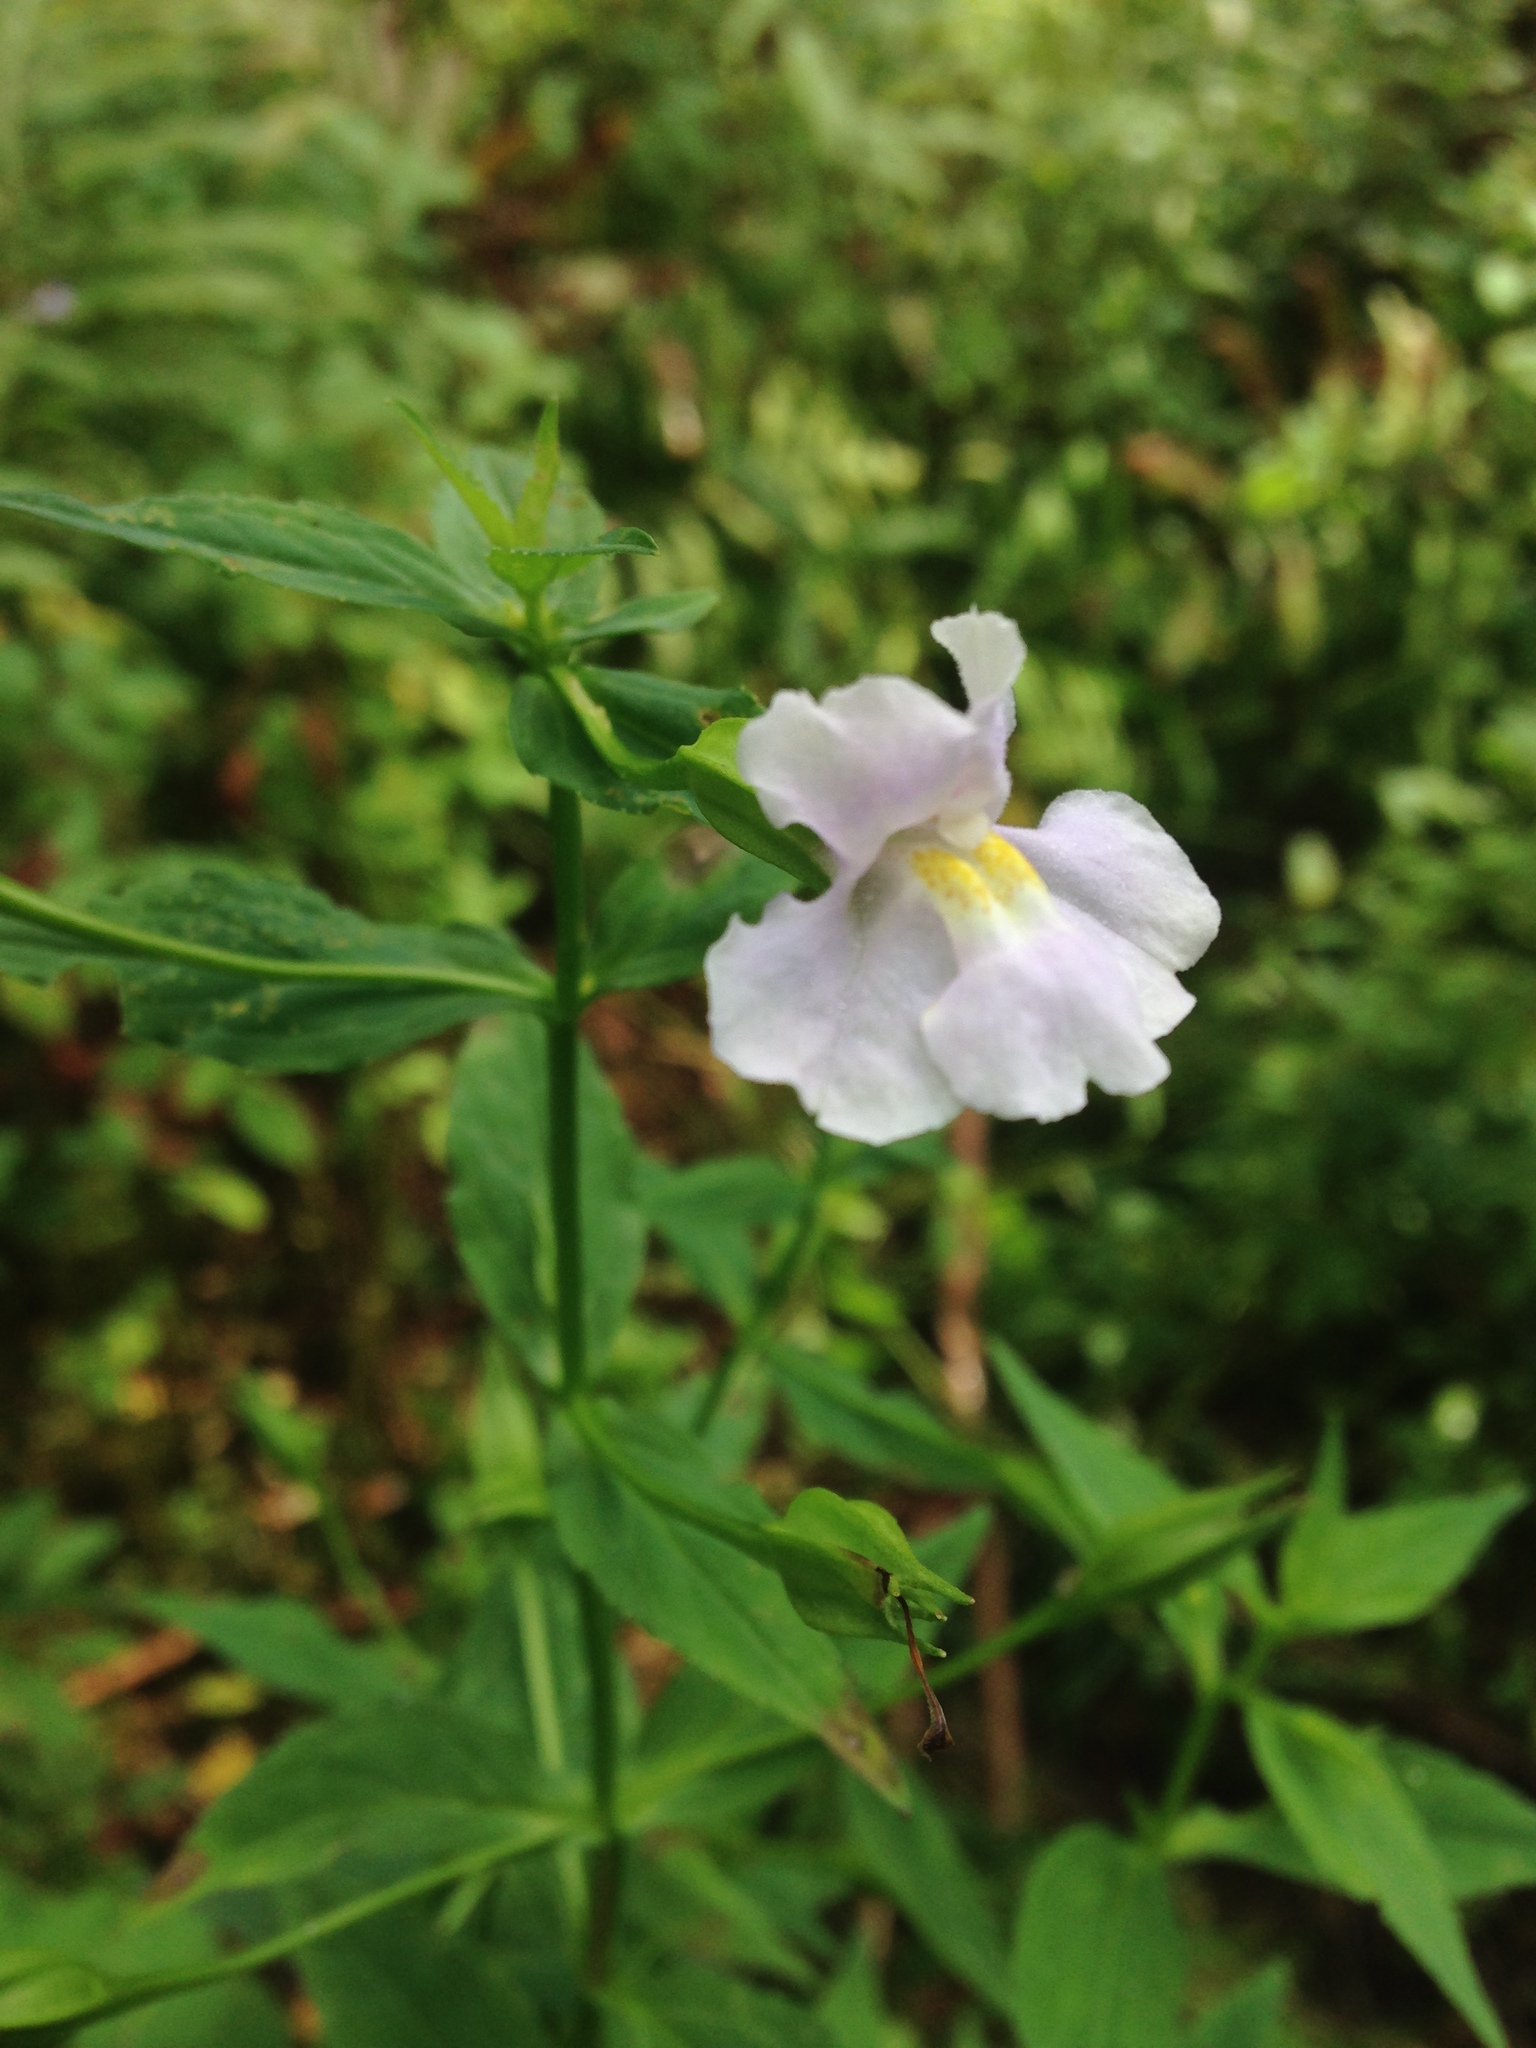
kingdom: Plantae
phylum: Tracheophyta
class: Magnoliopsida
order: Lamiales
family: Phrymaceae
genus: Mimulus
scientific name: Mimulus ringens
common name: Allegheny monkeyflower
